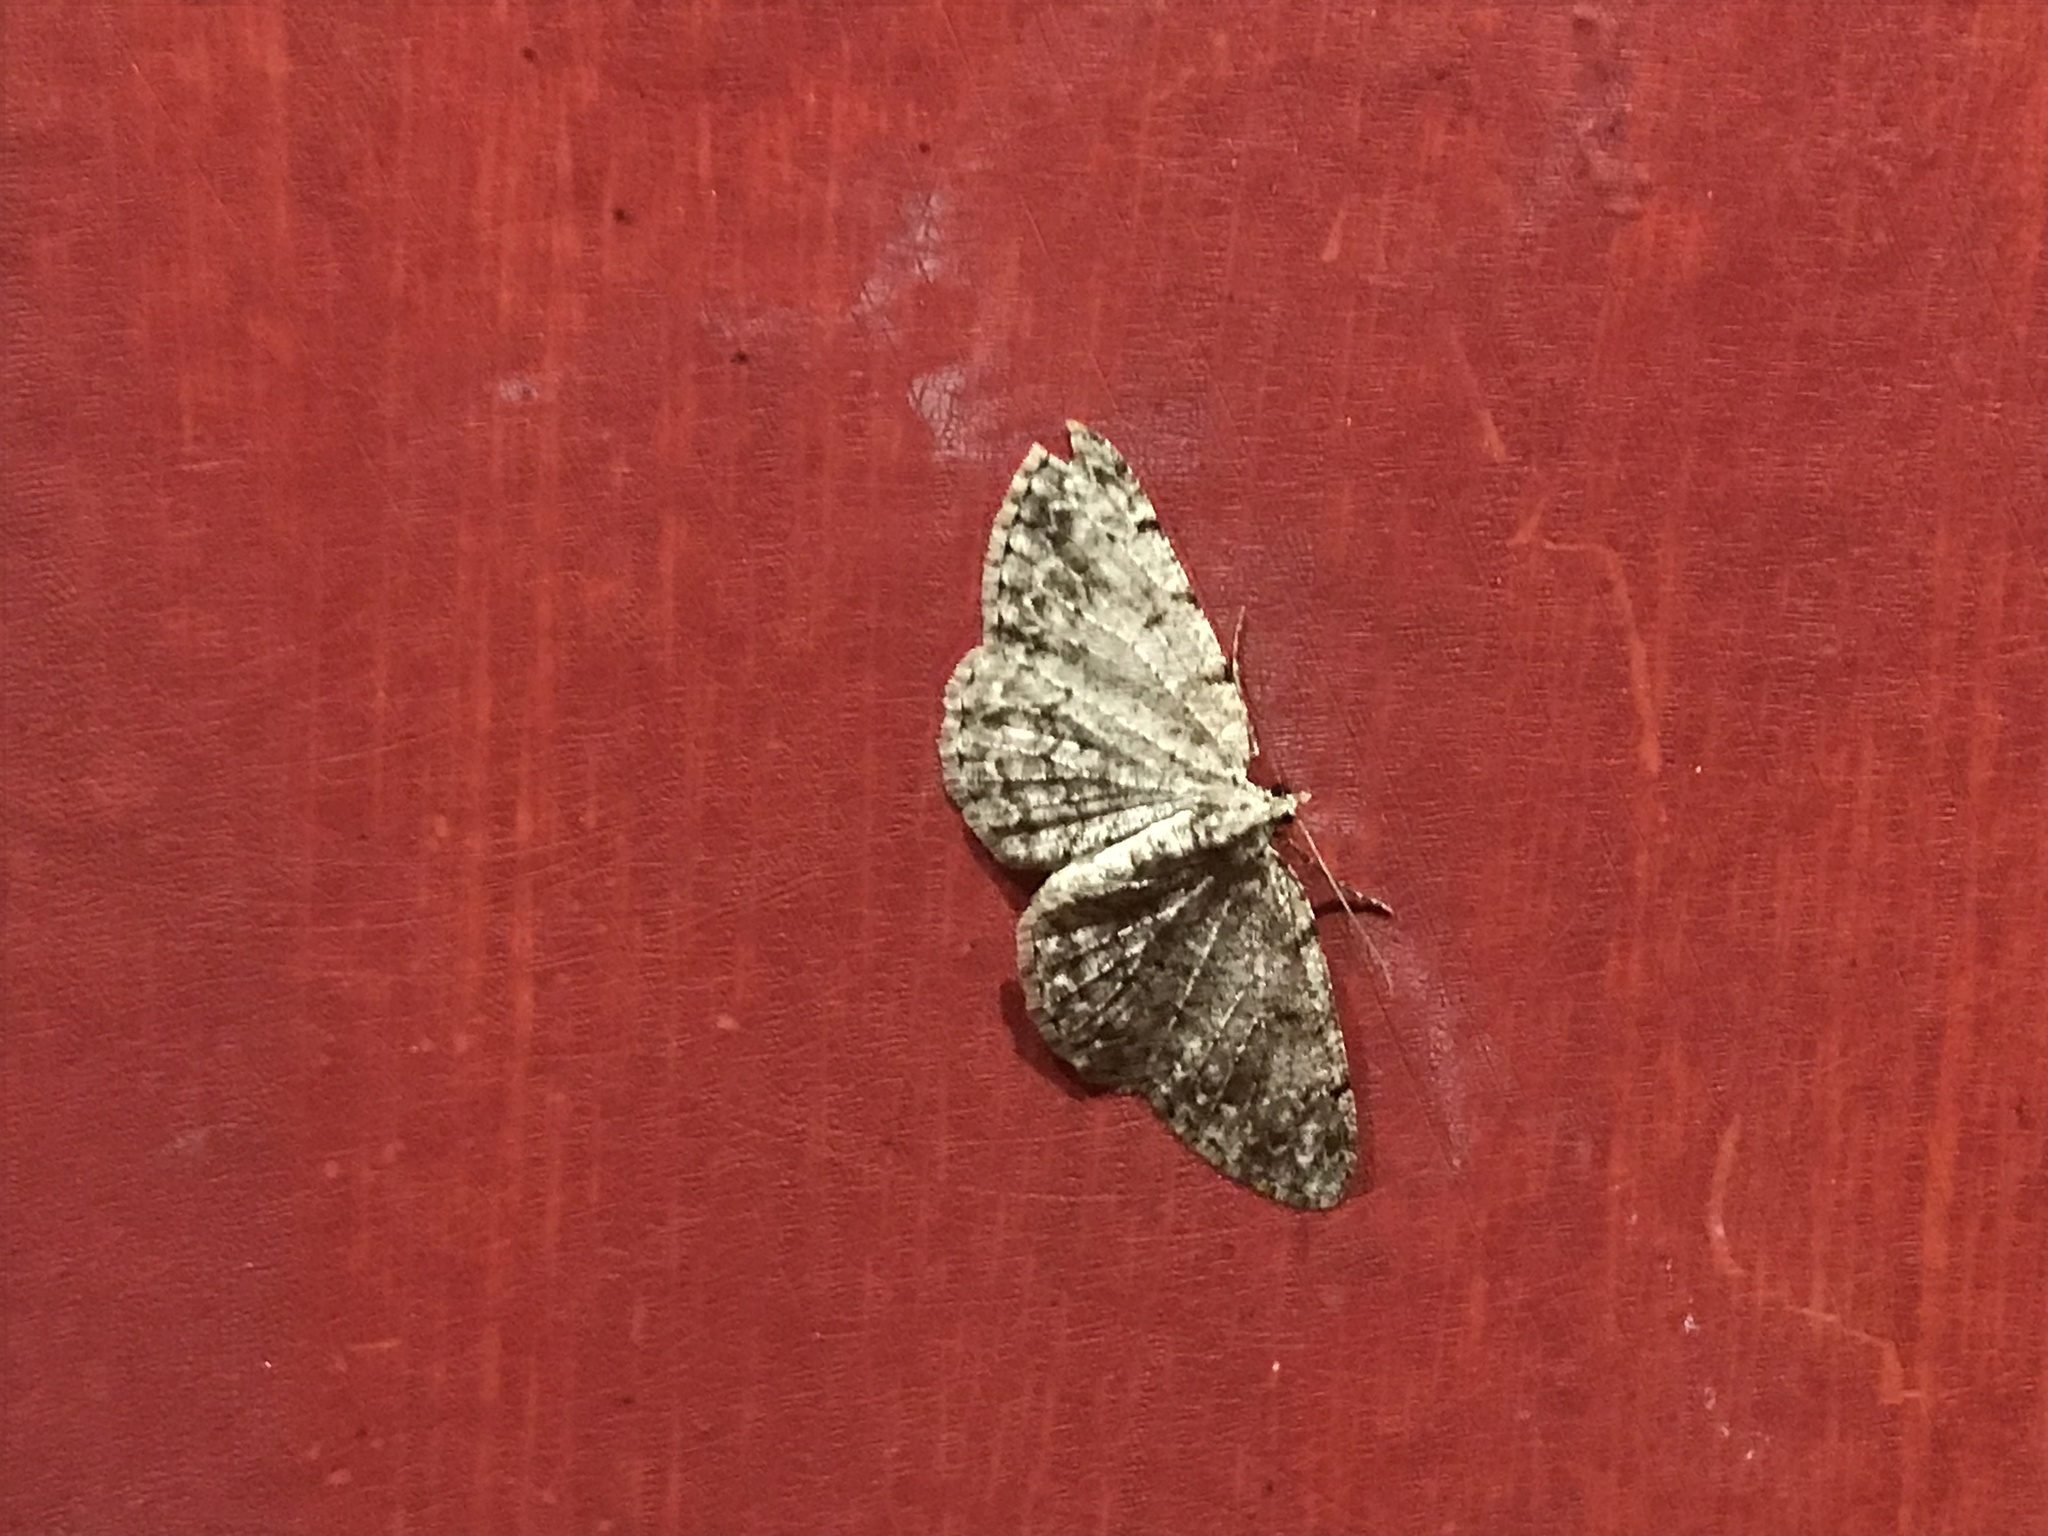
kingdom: Animalia
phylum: Arthropoda
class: Insecta
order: Lepidoptera
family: Geometridae
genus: Protoboarmia
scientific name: Protoboarmia porcelaria
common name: Porcelain gray
